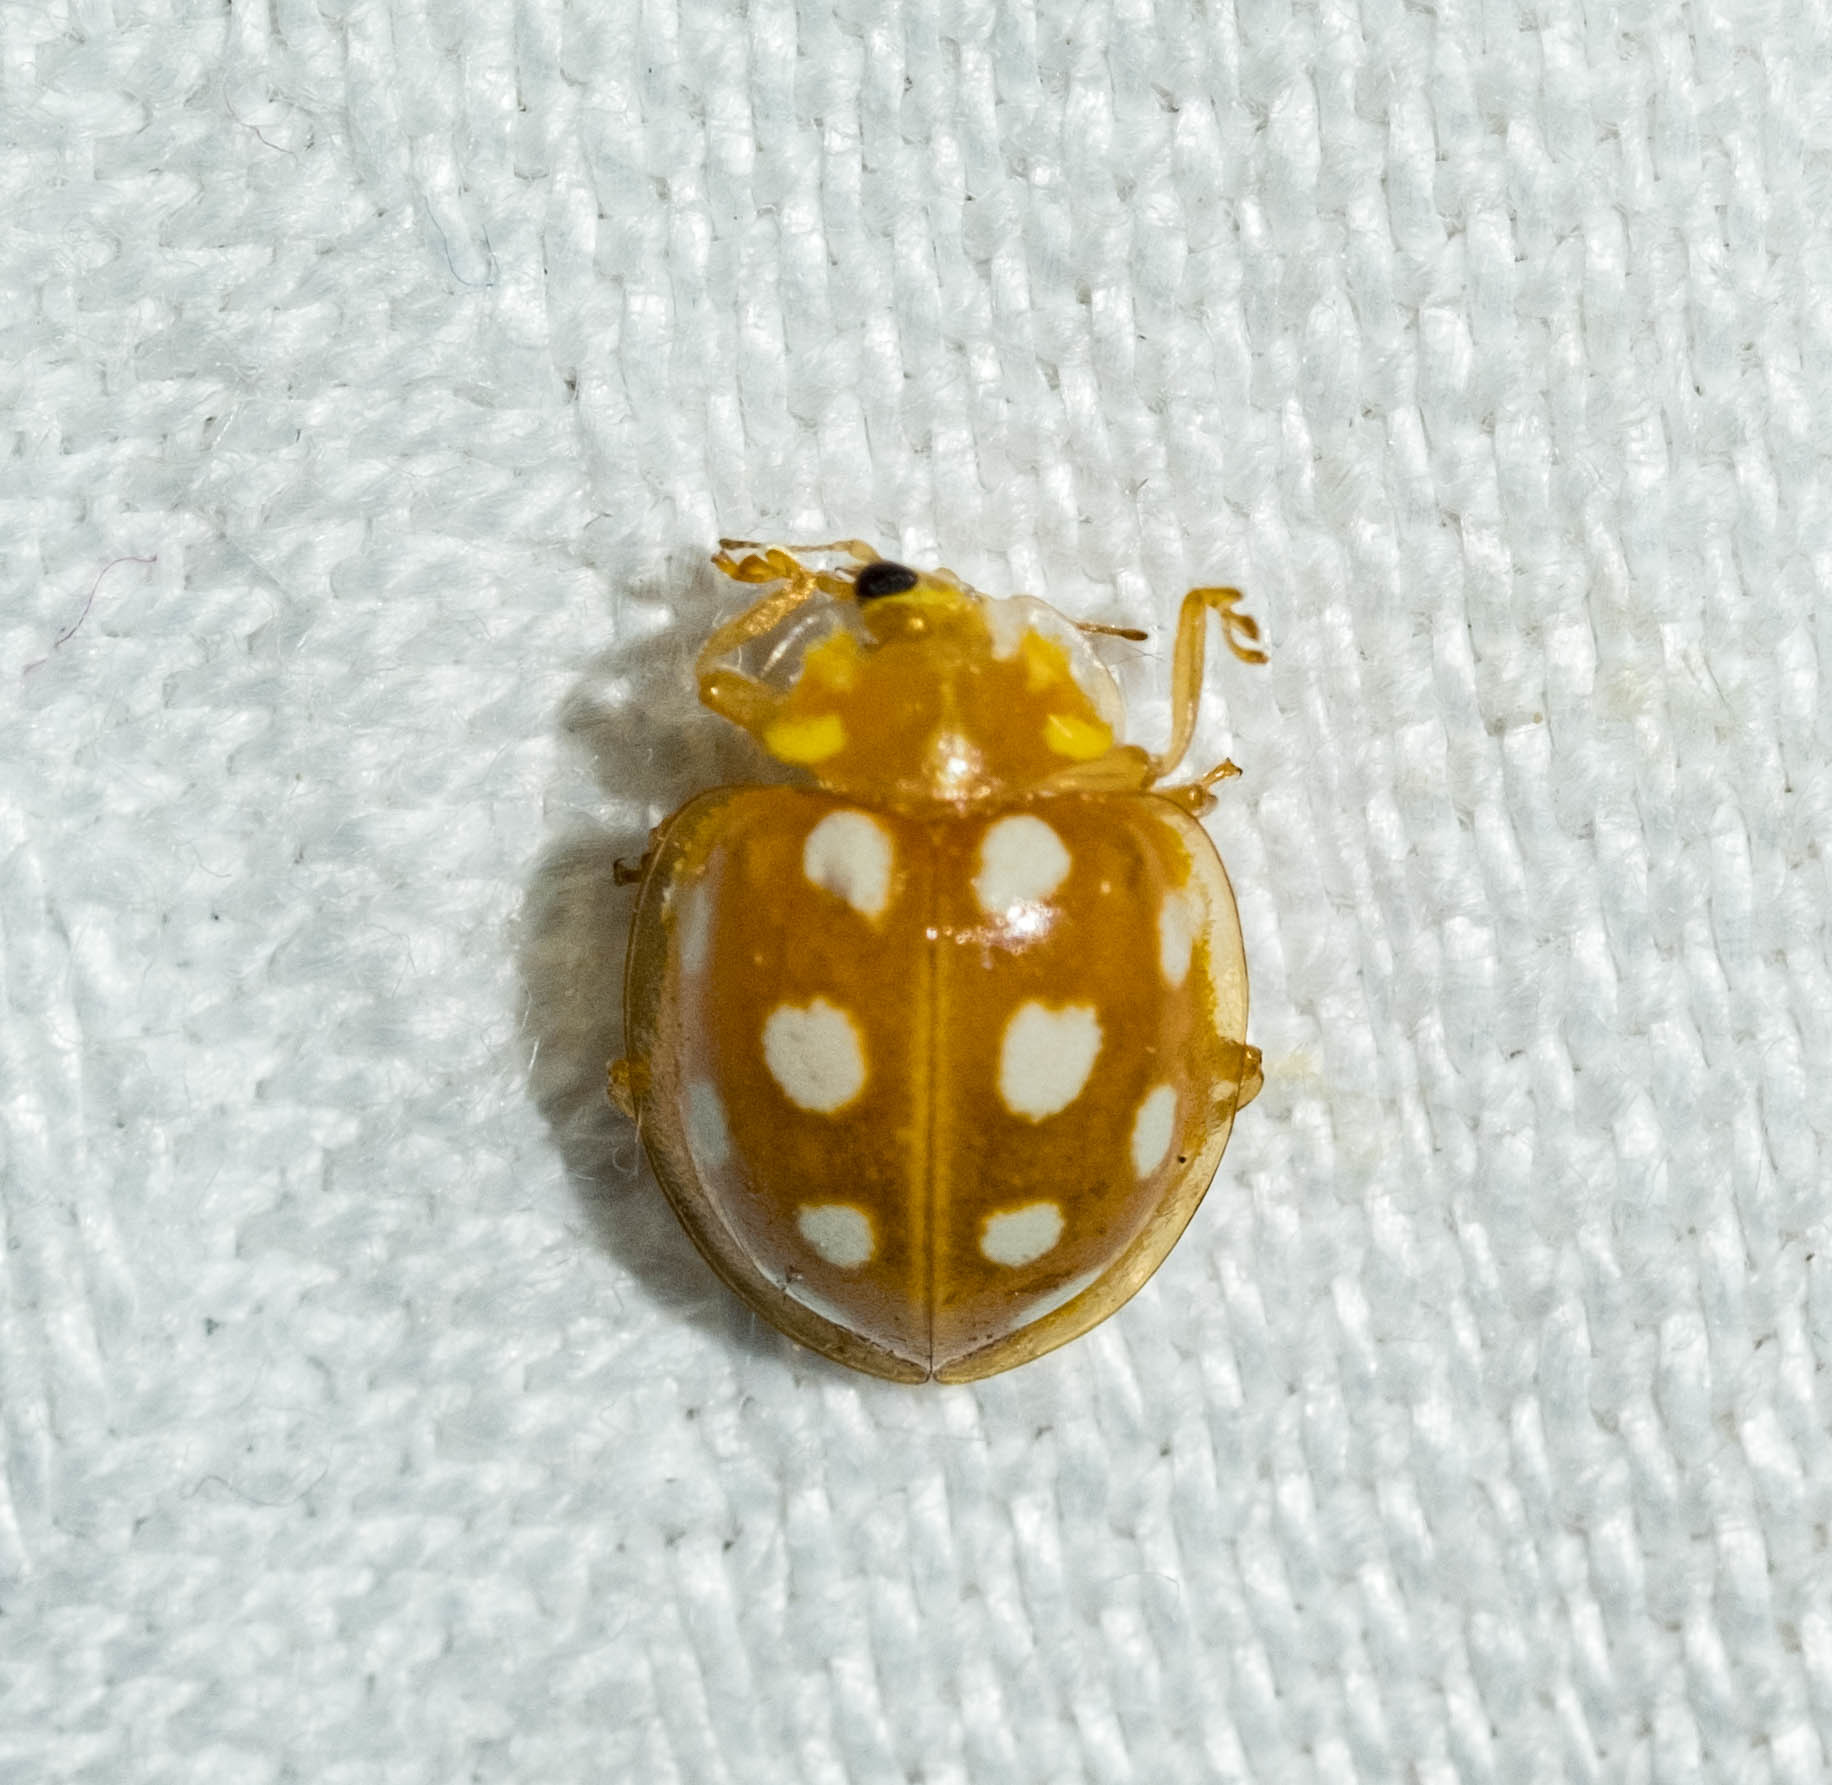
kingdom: Animalia
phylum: Arthropoda
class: Insecta
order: Coleoptera
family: Coccinellidae
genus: Halyzia
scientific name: Halyzia sedecimguttata
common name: Orange ladybird
